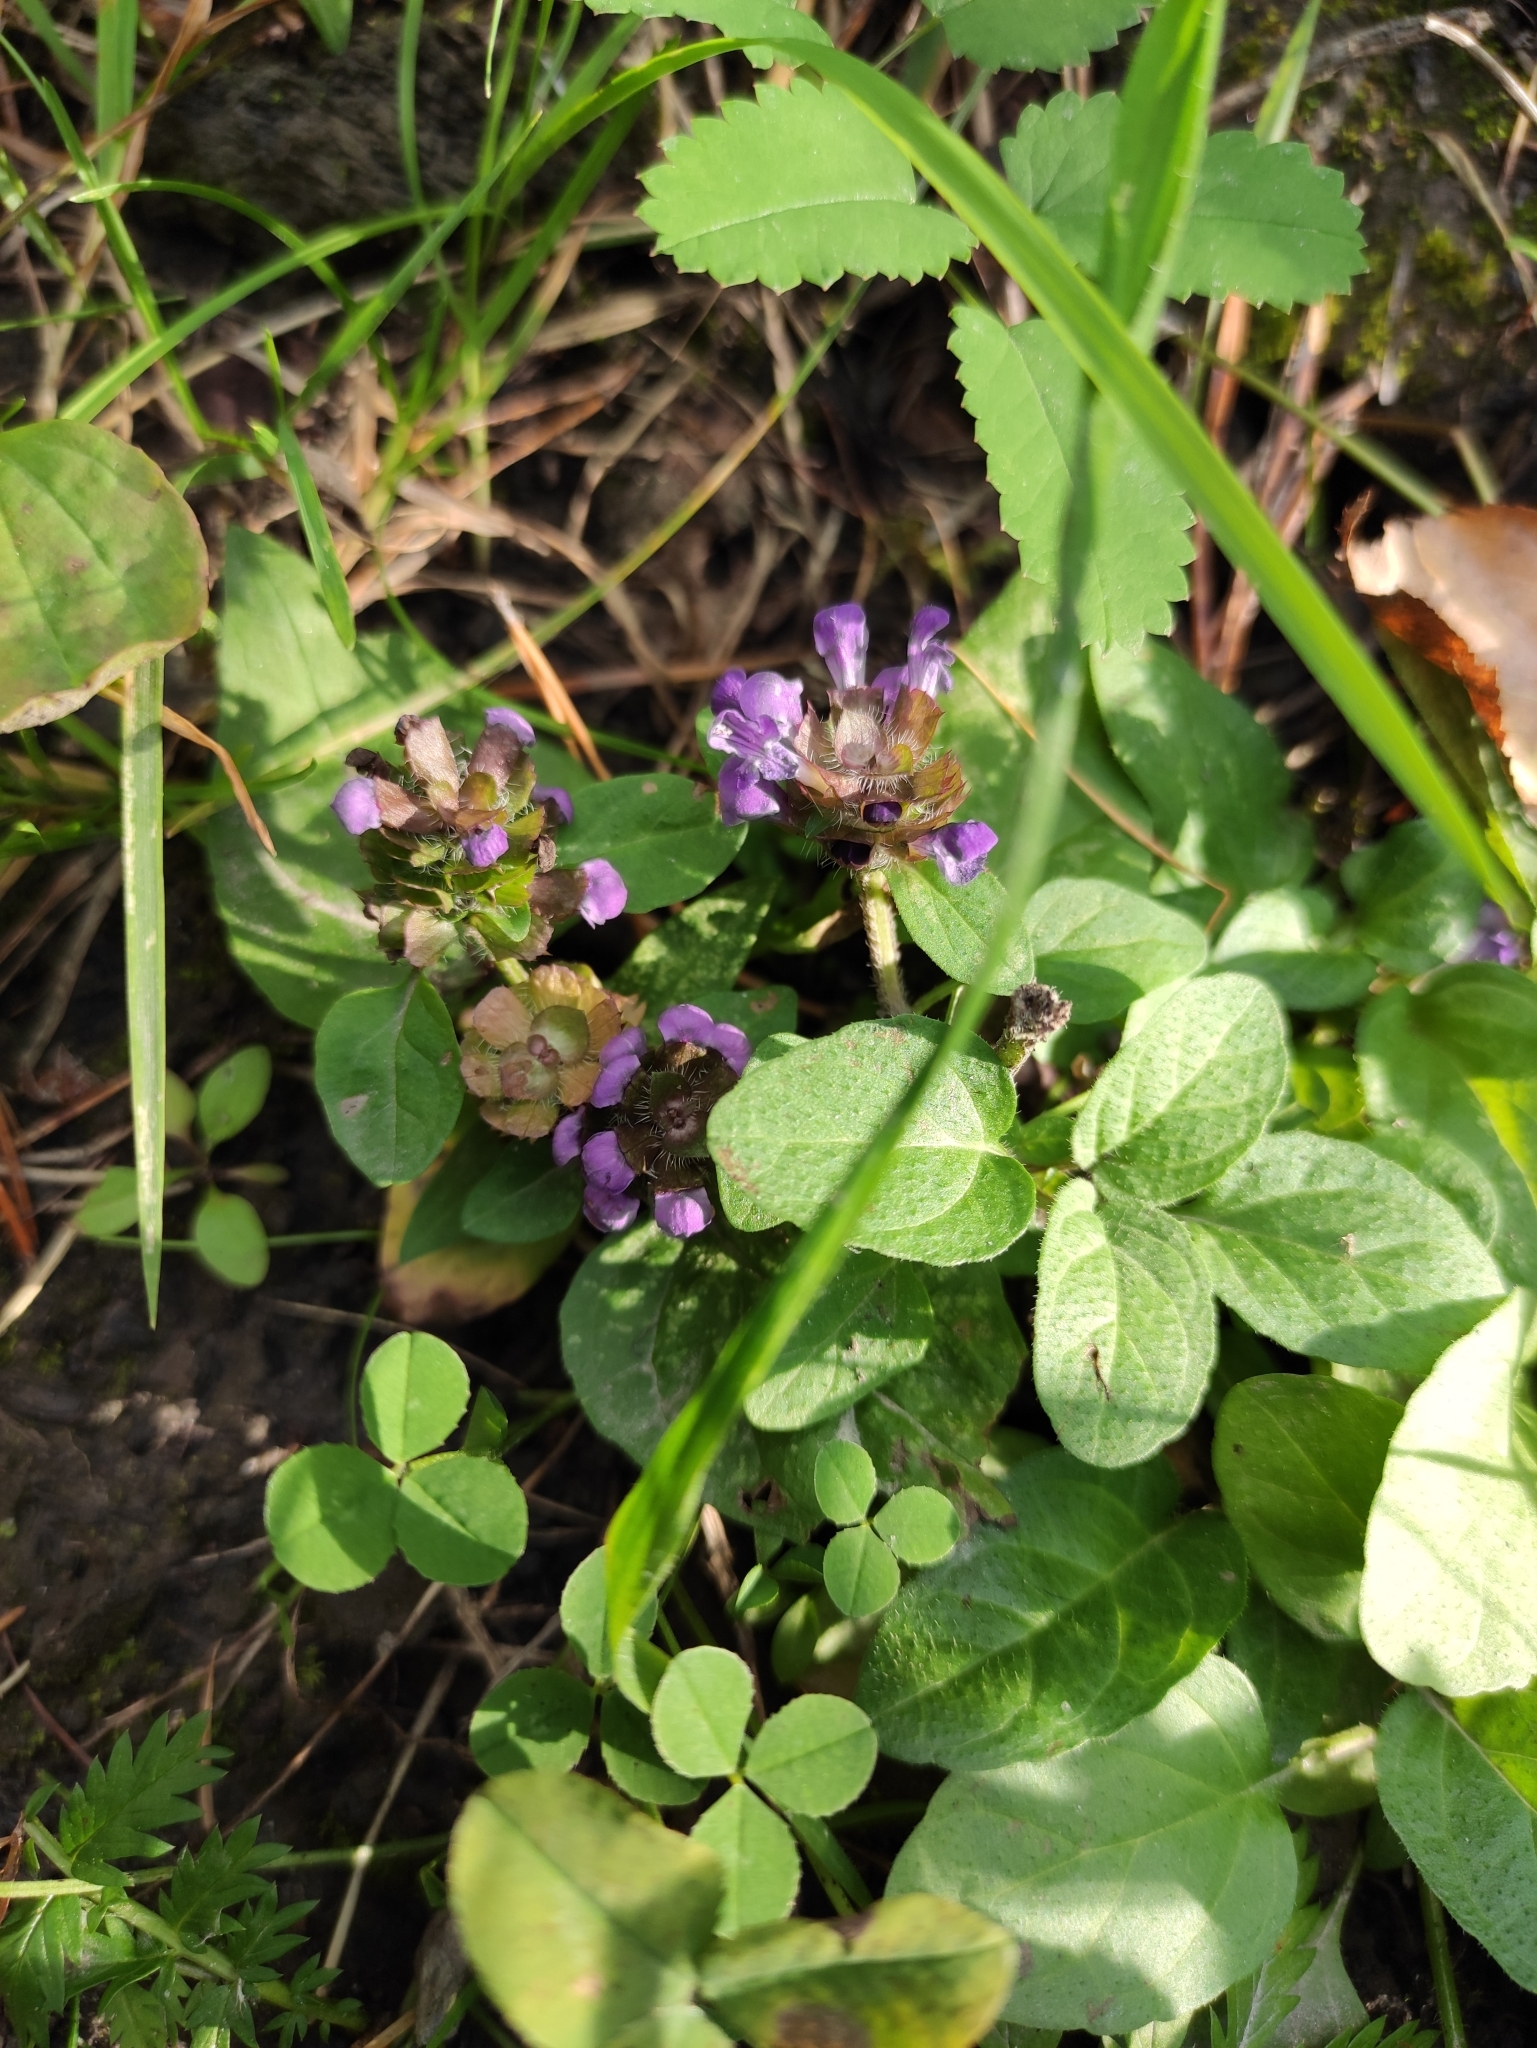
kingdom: Plantae
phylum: Tracheophyta
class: Magnoliopsida
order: Lamiales
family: Lamiaceae
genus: Prunella
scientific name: Prunella vulgaris
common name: Heal-all
